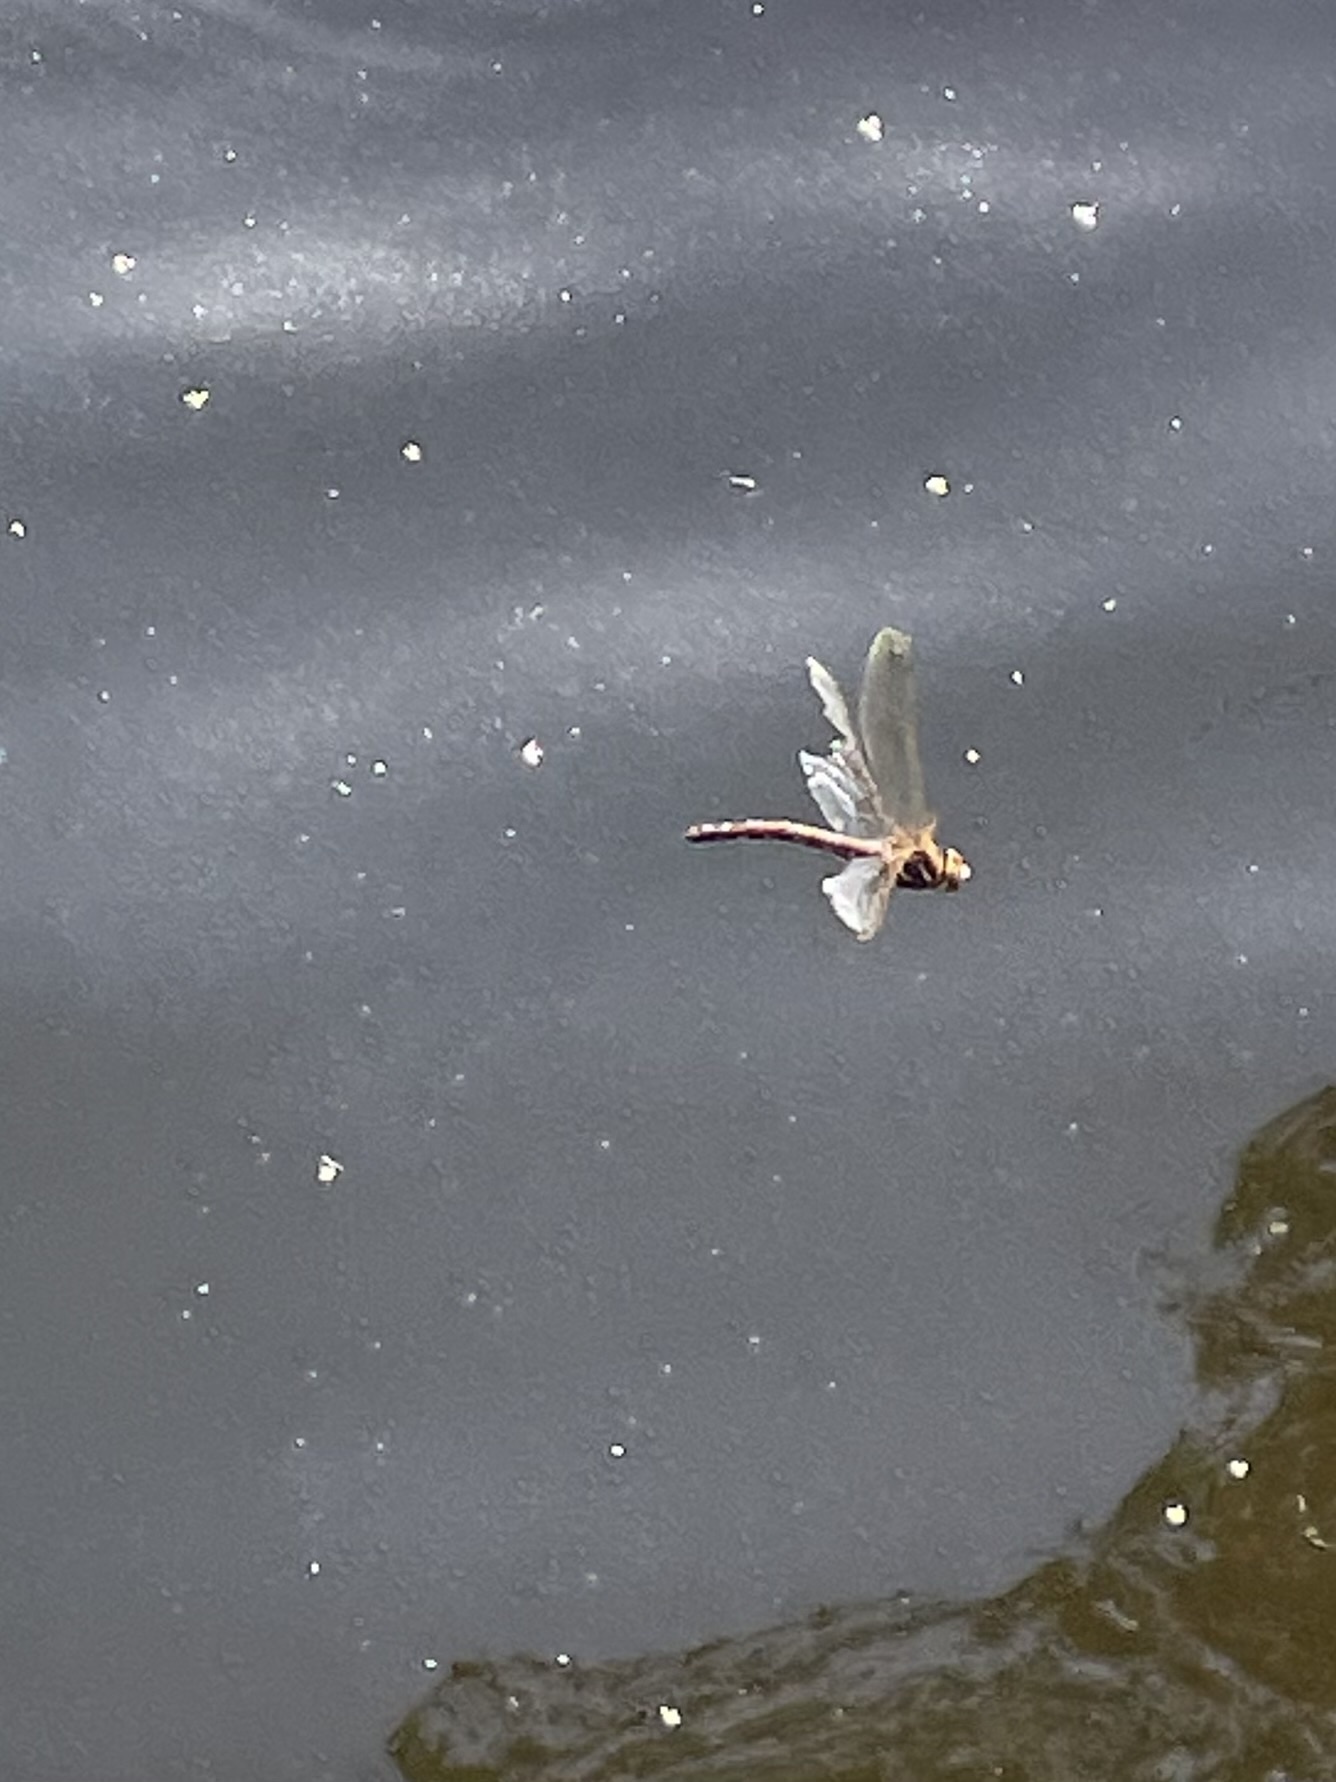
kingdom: Animalia
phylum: Arthropoda
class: Insecta
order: Odonata
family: Aeshnidae
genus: Aeshna
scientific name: Aeshna grandis
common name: Brown hawker
